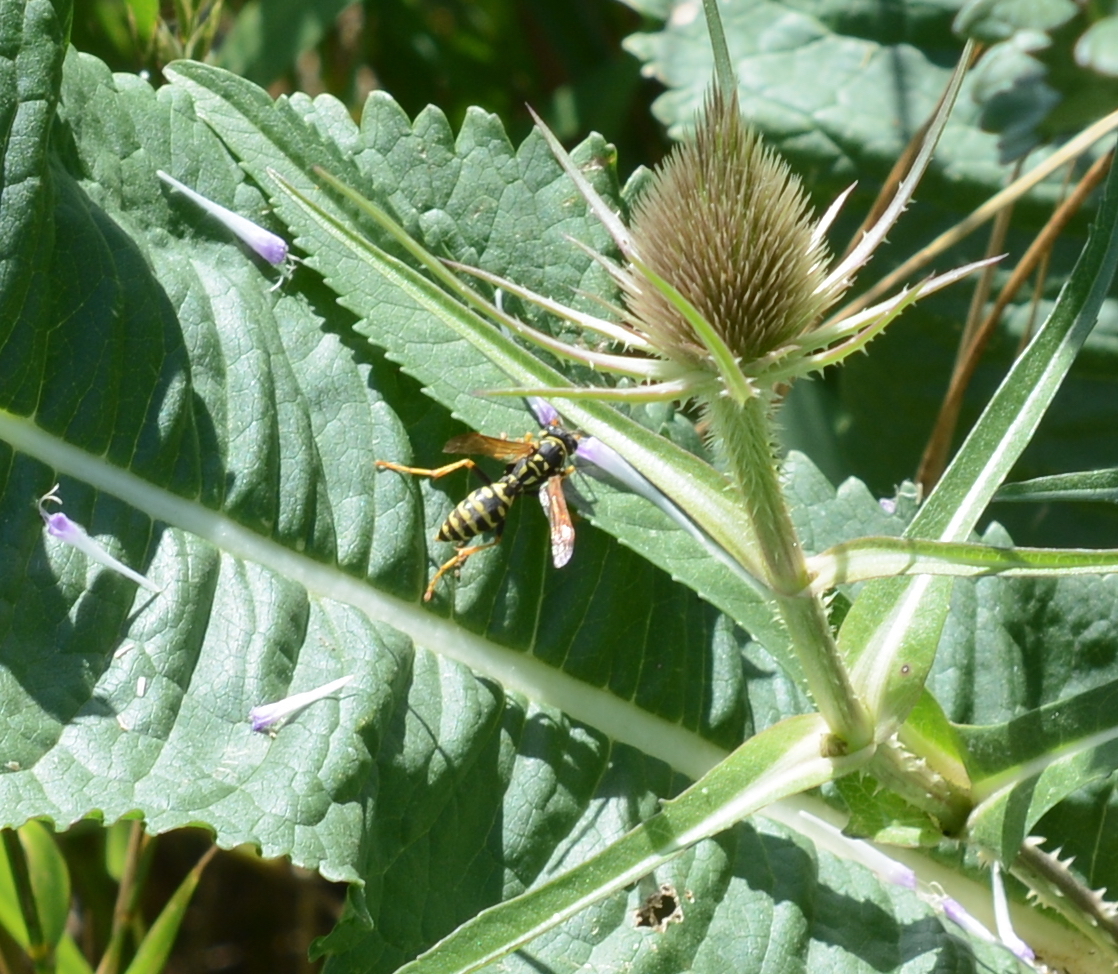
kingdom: Animalia
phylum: Arthropoda
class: Insecta
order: Hymenoptera
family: Eumenidae
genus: Polistes
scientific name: Polistes dominula
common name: Paper wasp
